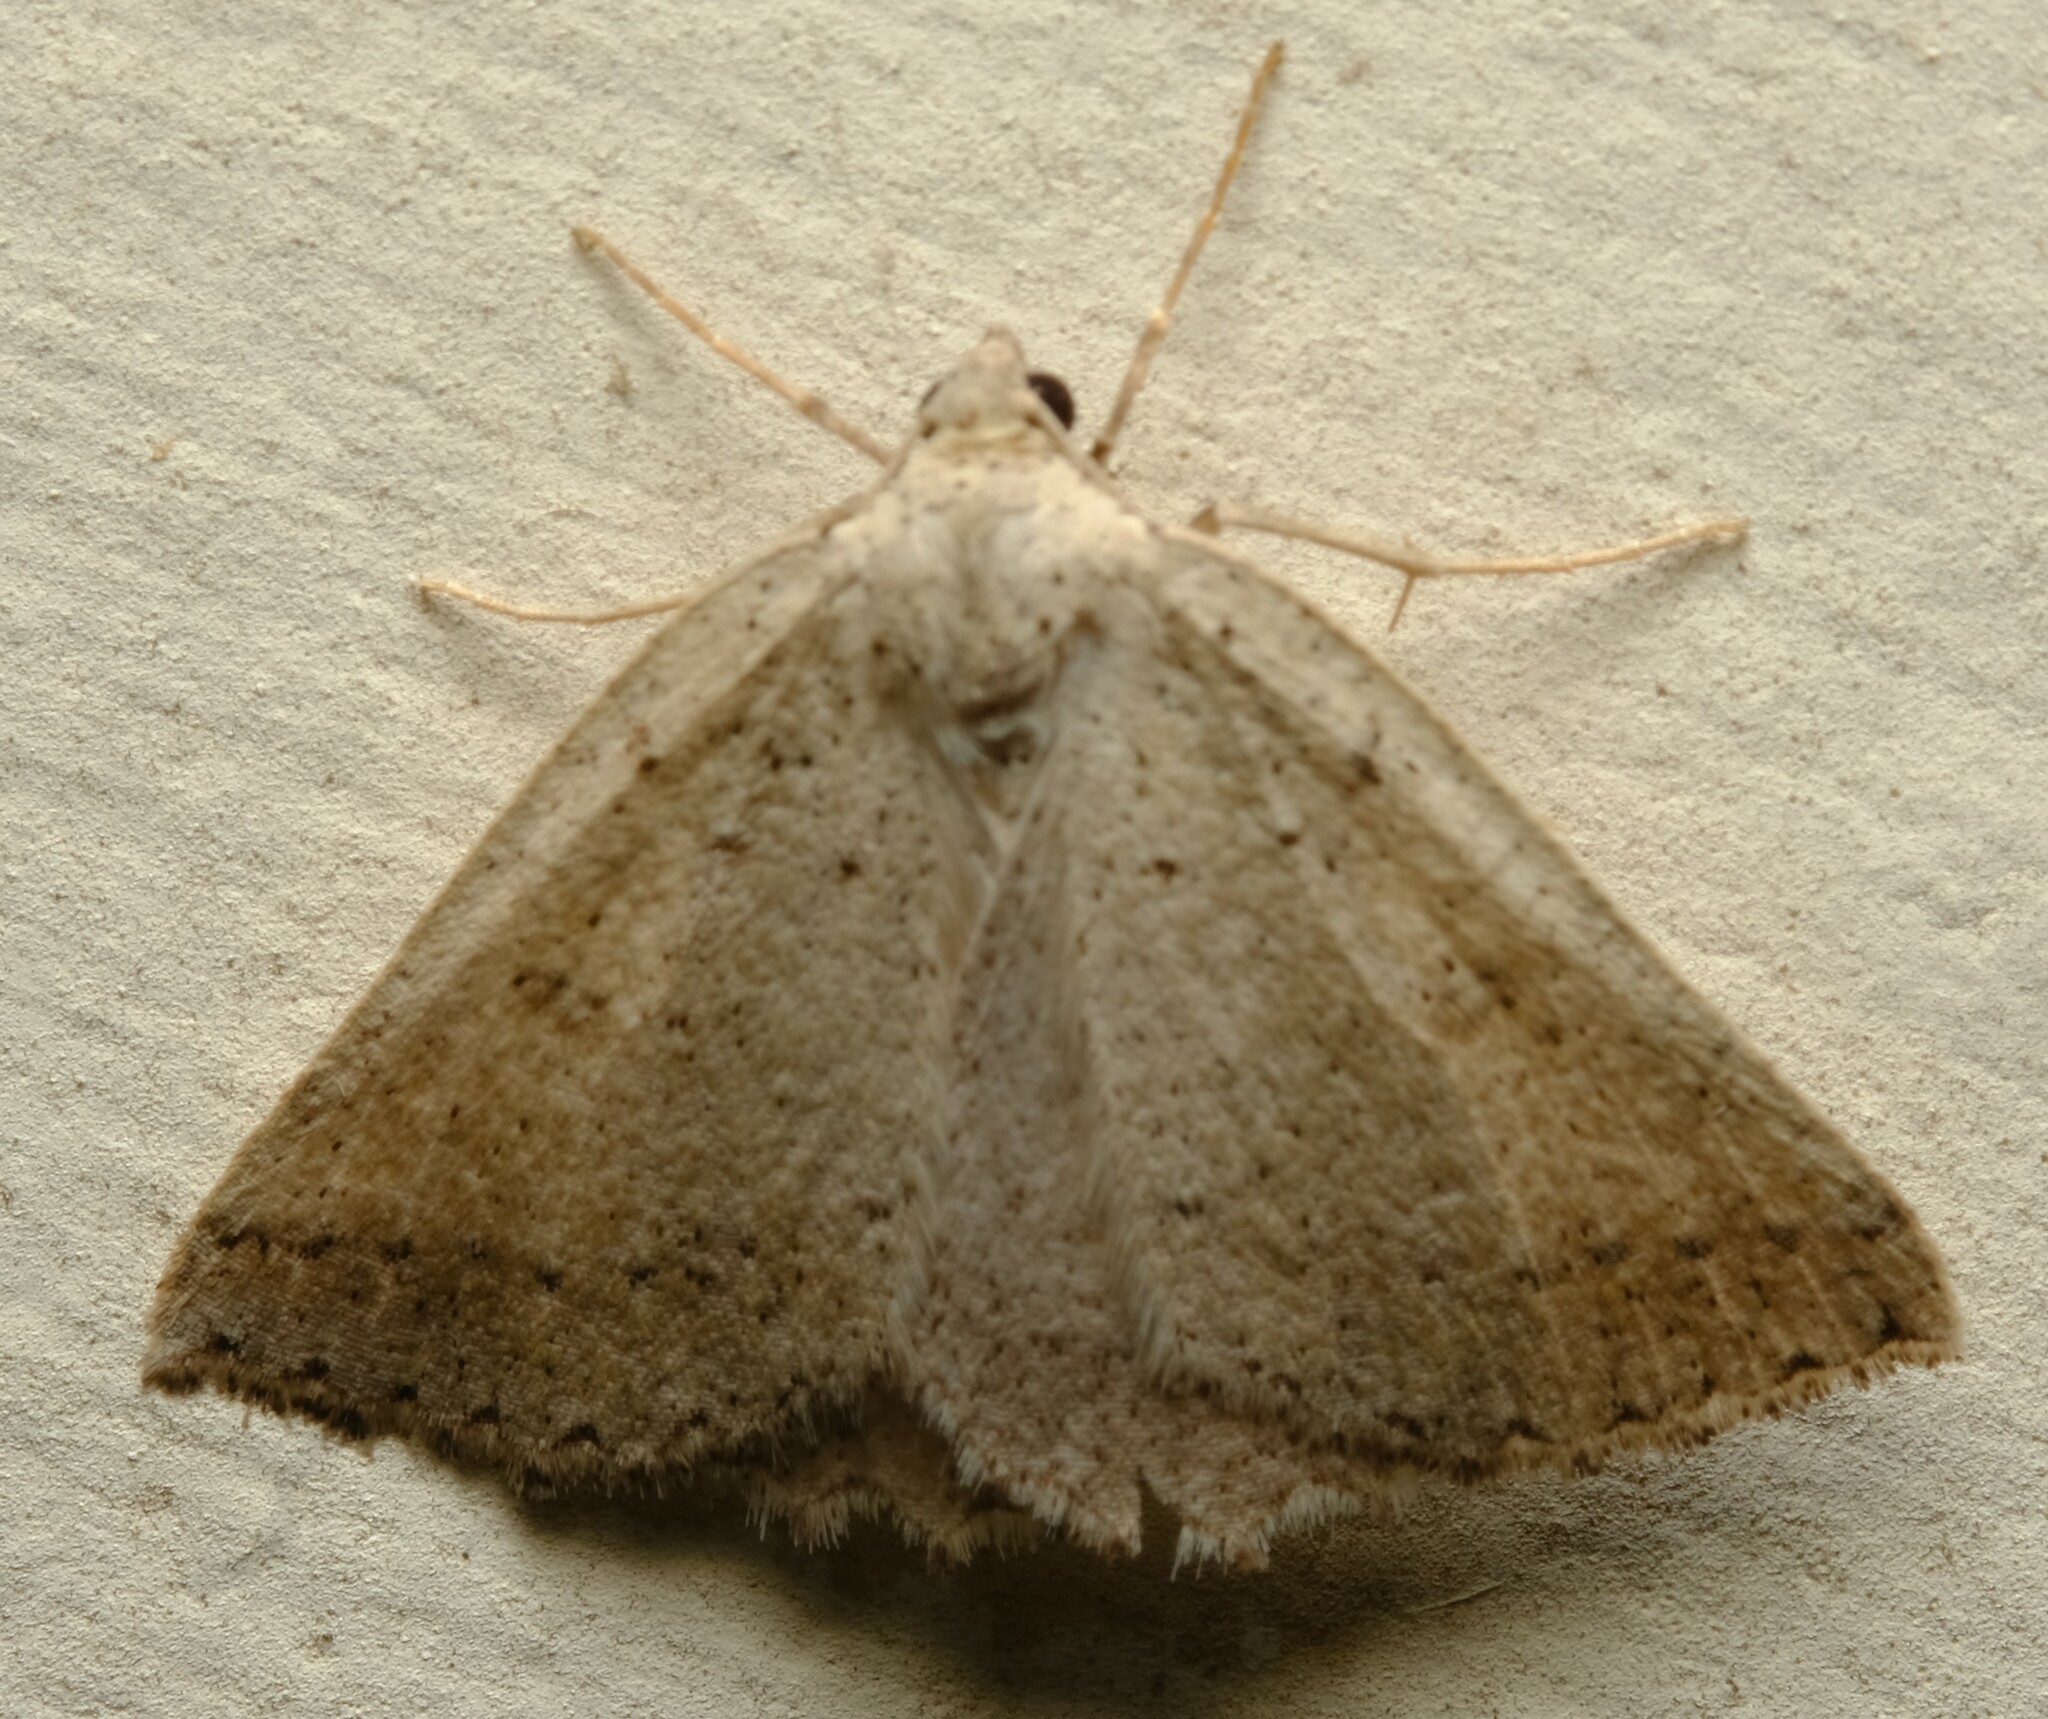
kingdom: Animalia
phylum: Arthropoda
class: Insecta
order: Lepidoptera
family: Geometridae
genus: Amelora
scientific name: Amelora zophopasta
